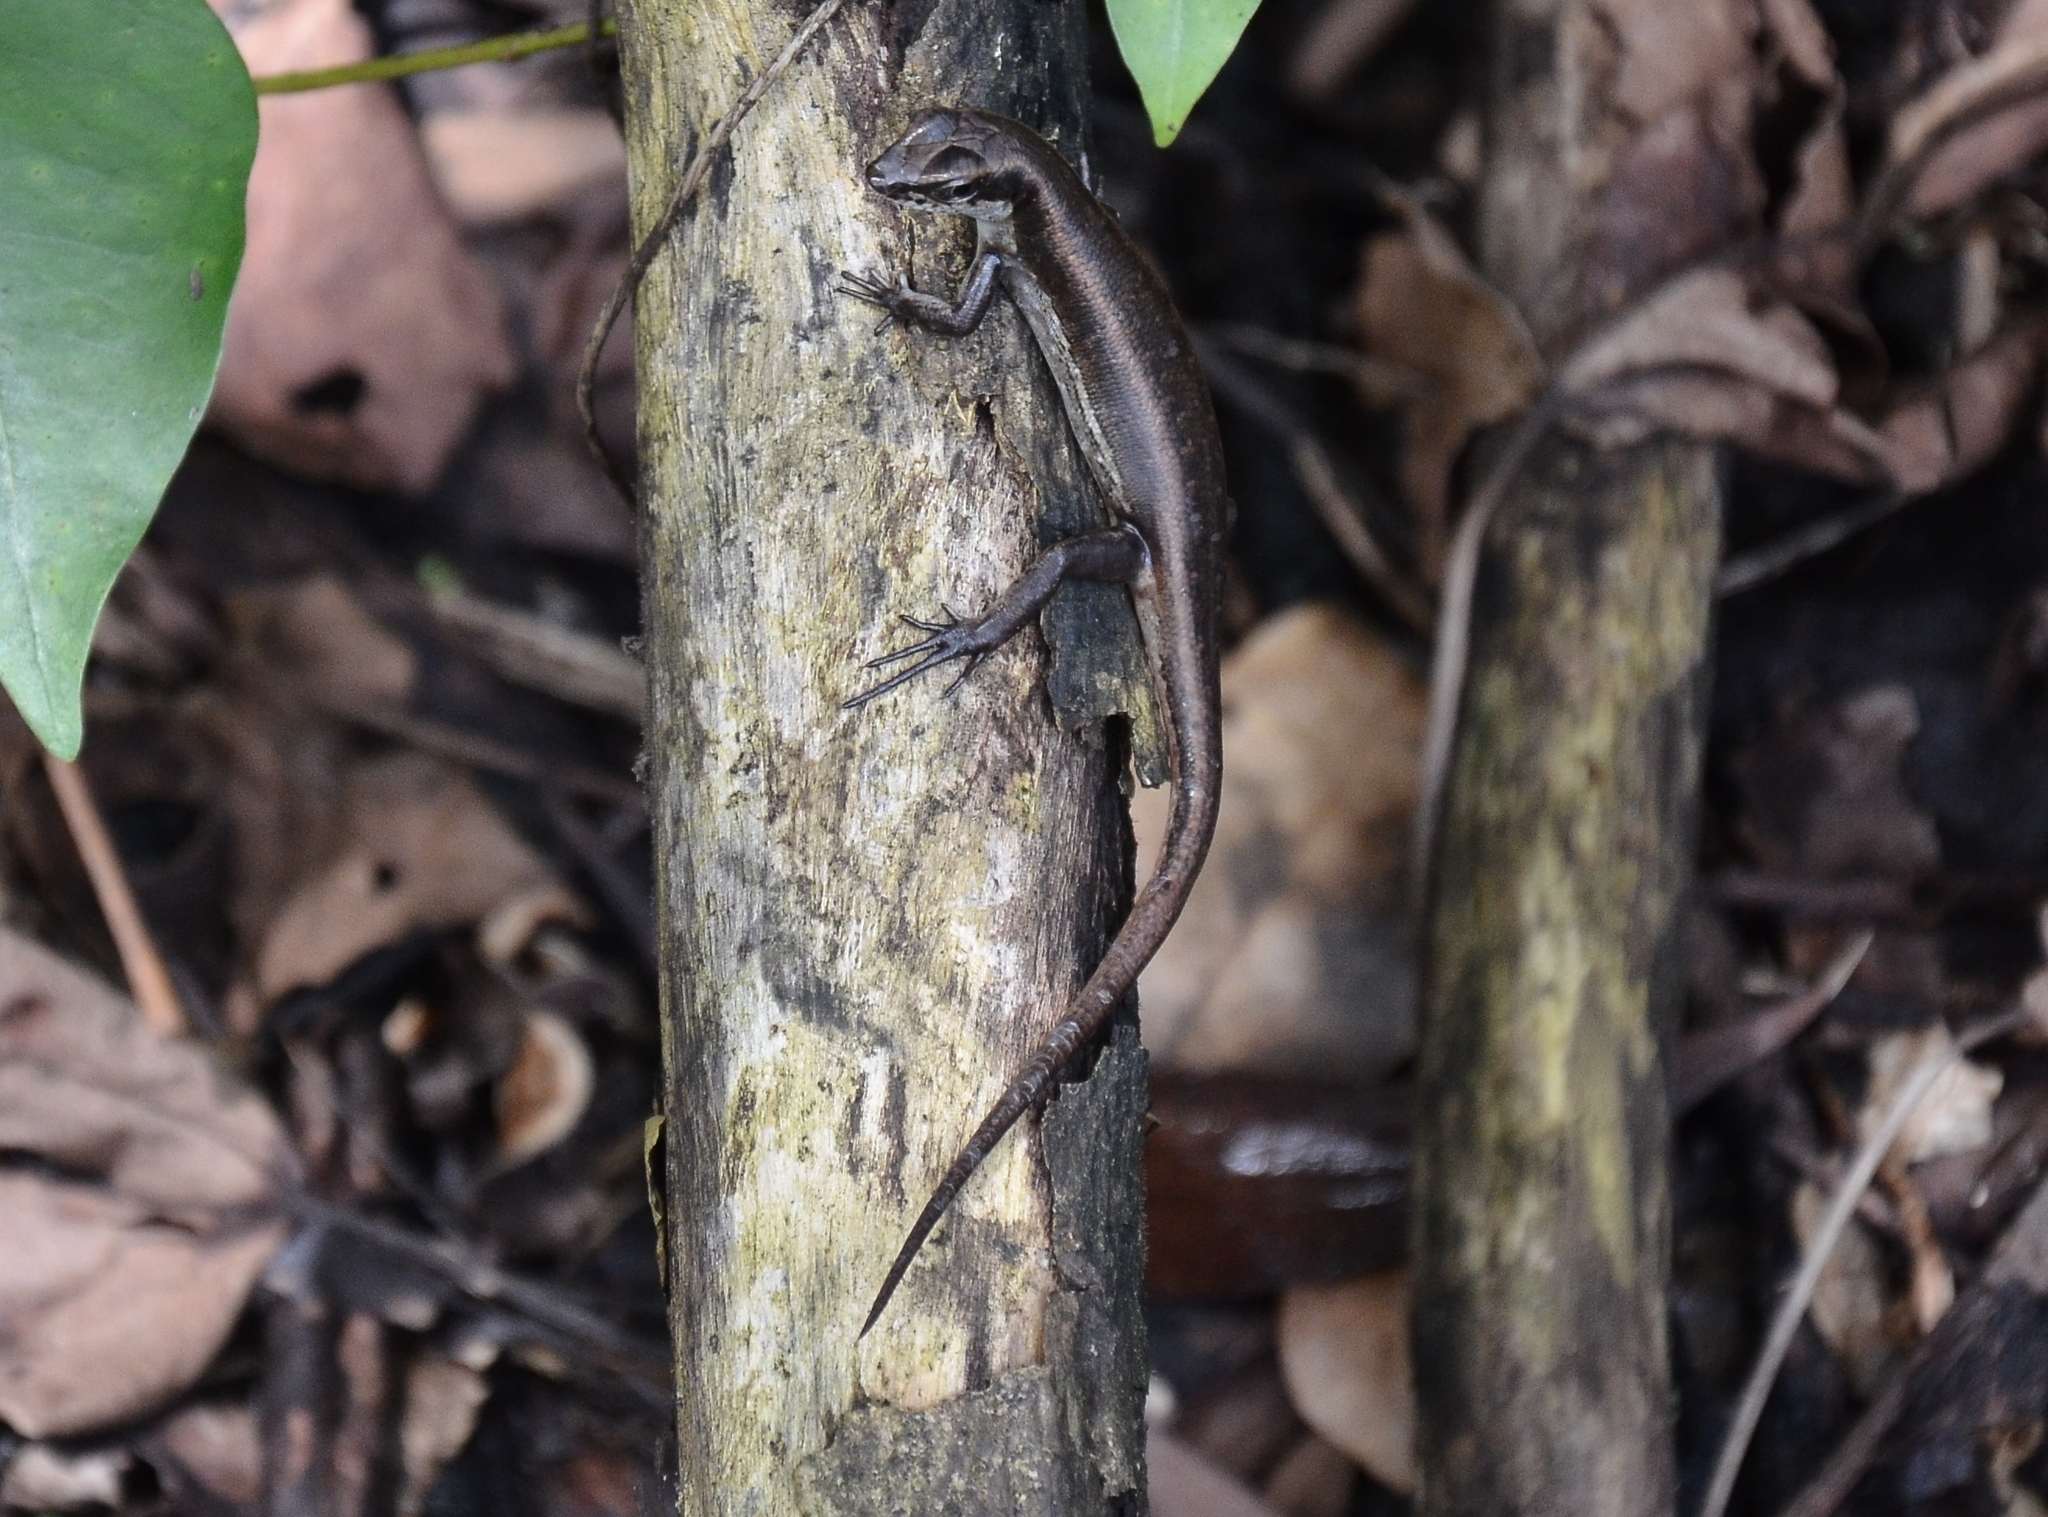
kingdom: Animalia
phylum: Chordata
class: Squamata
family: Scincidae
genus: Sphenomorphus
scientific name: Sphenomorphus dussumieri
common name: Dussumier's forest skink
